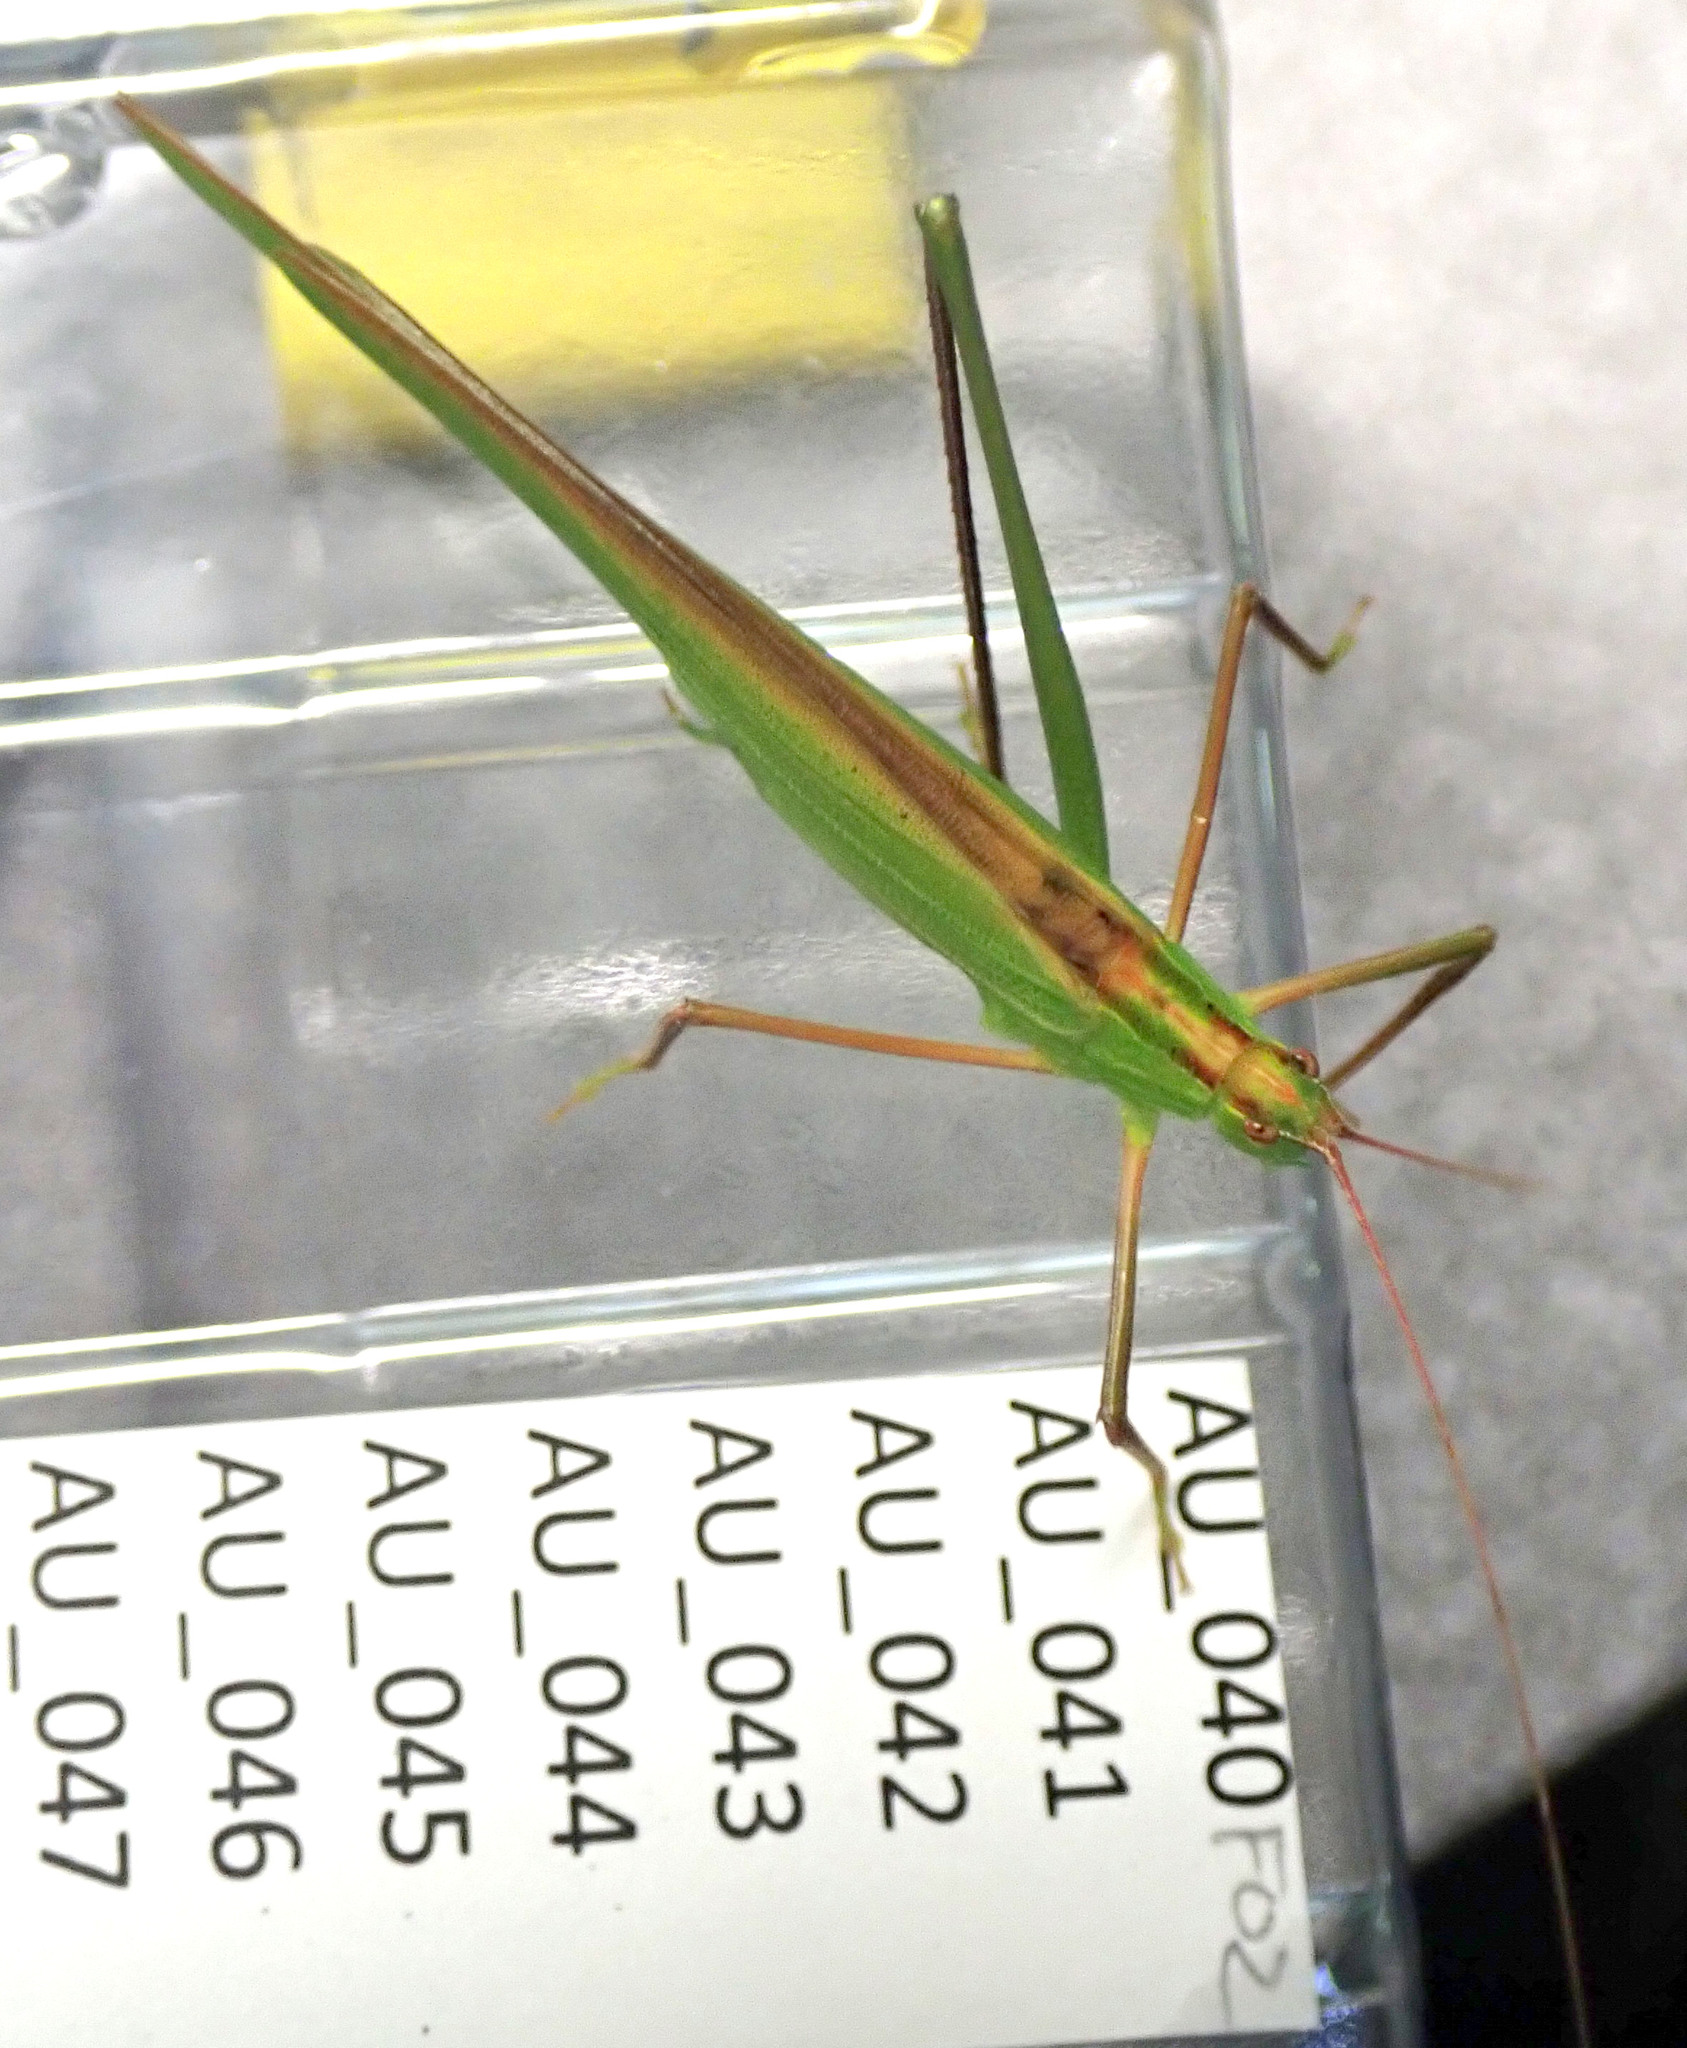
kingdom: Animalia
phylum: Arthropoda
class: Insecta
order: Orthoptera
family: Tettigoniidae
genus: Ducetia
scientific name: Ducetia antipoda
